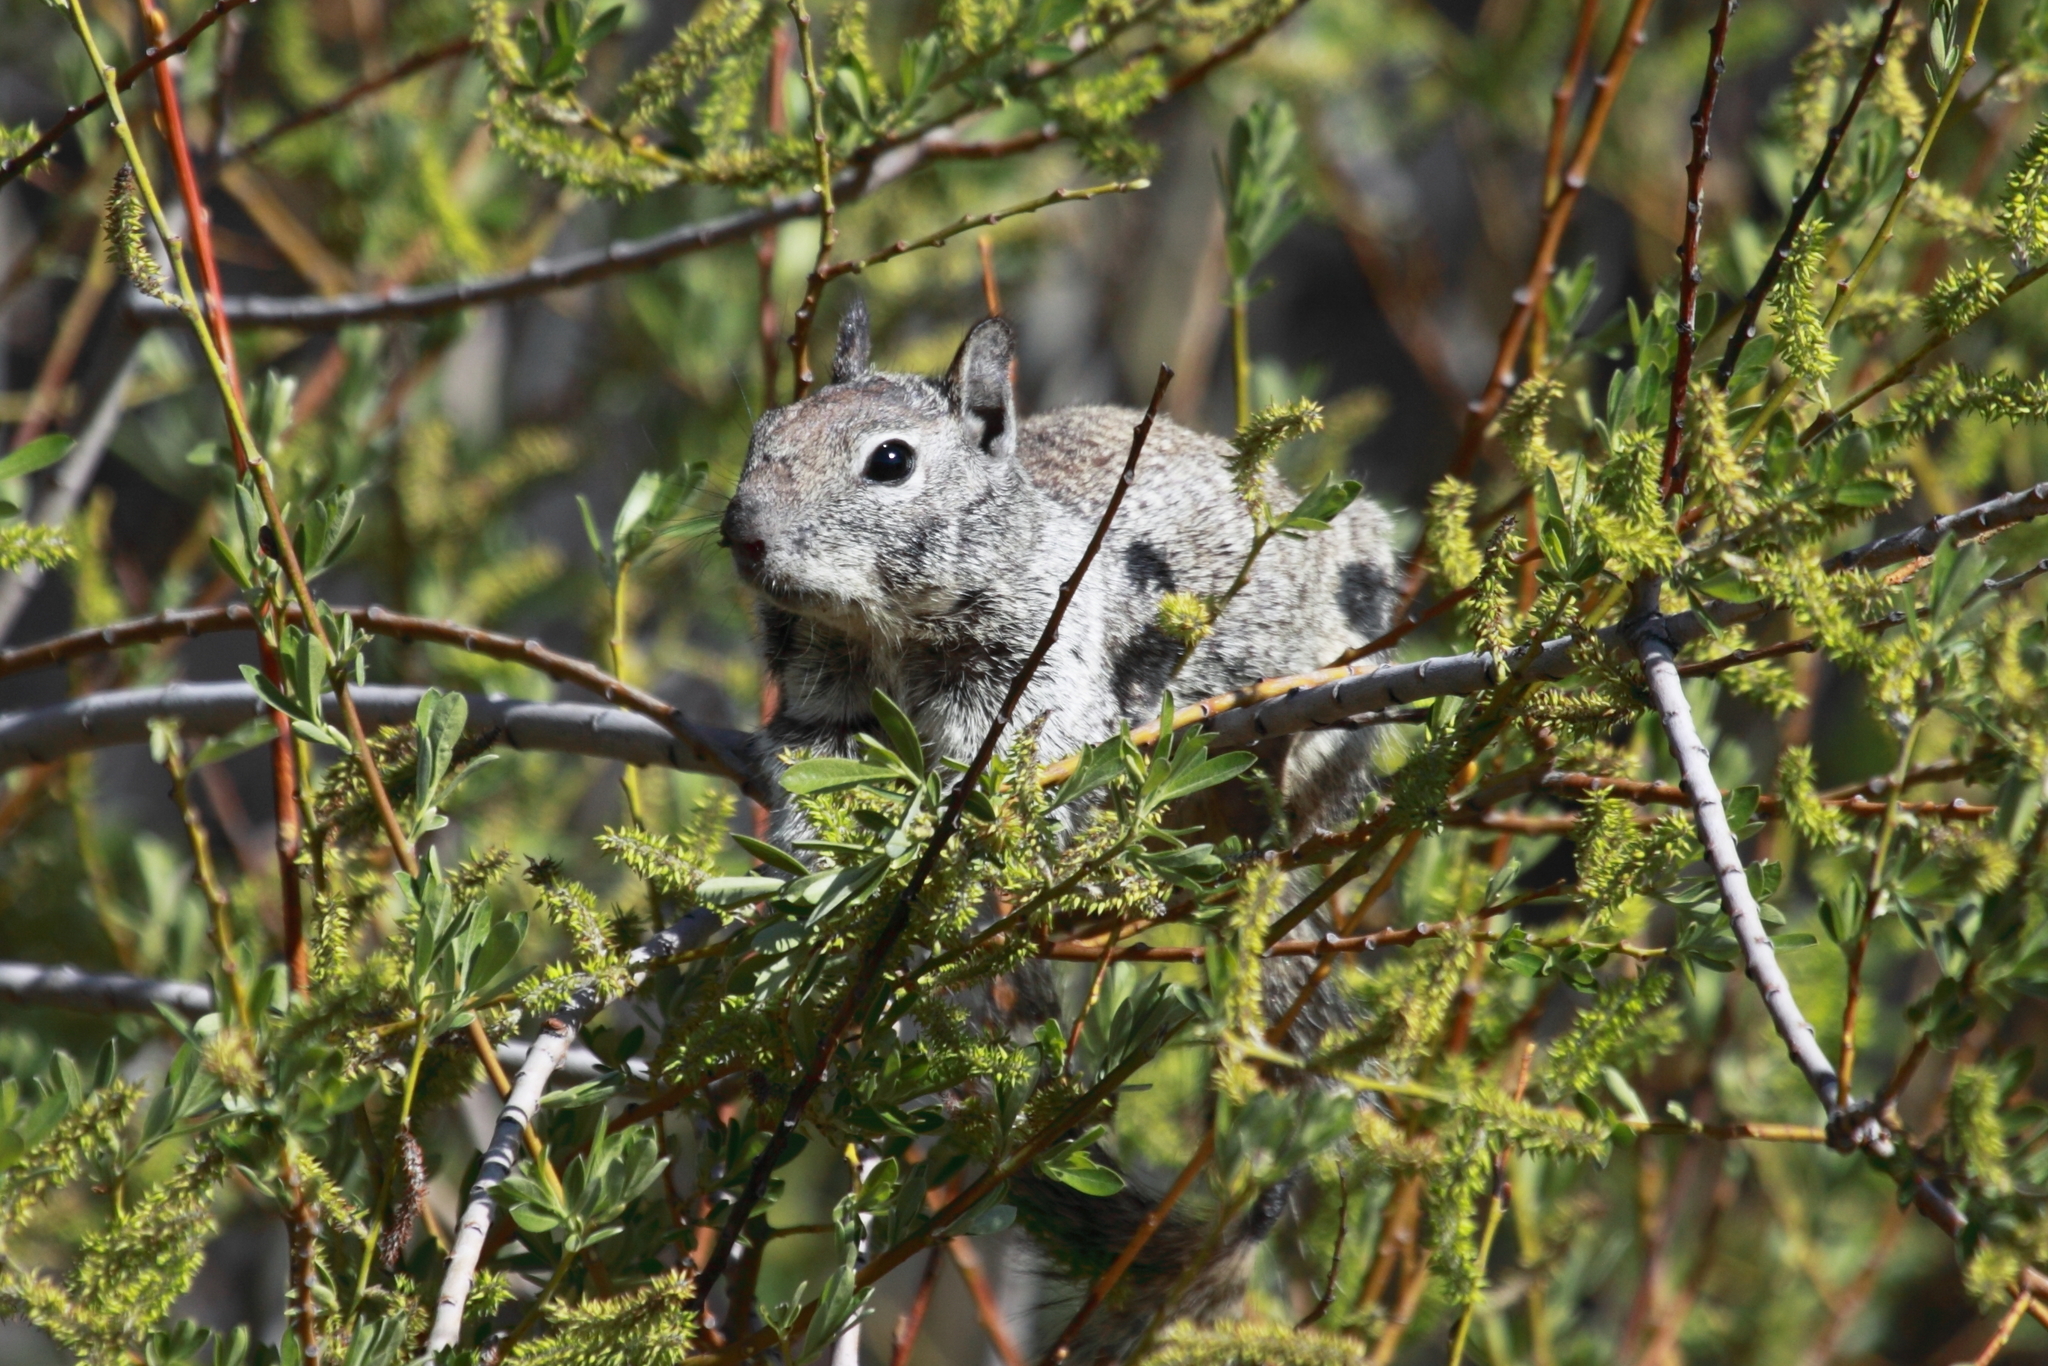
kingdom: Animalia
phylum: Chordata
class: Mammalia
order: Rodentia
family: Sciuridae
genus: Otospermophilus
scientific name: Otospermophilus beecheyi
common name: California ground squirrel
